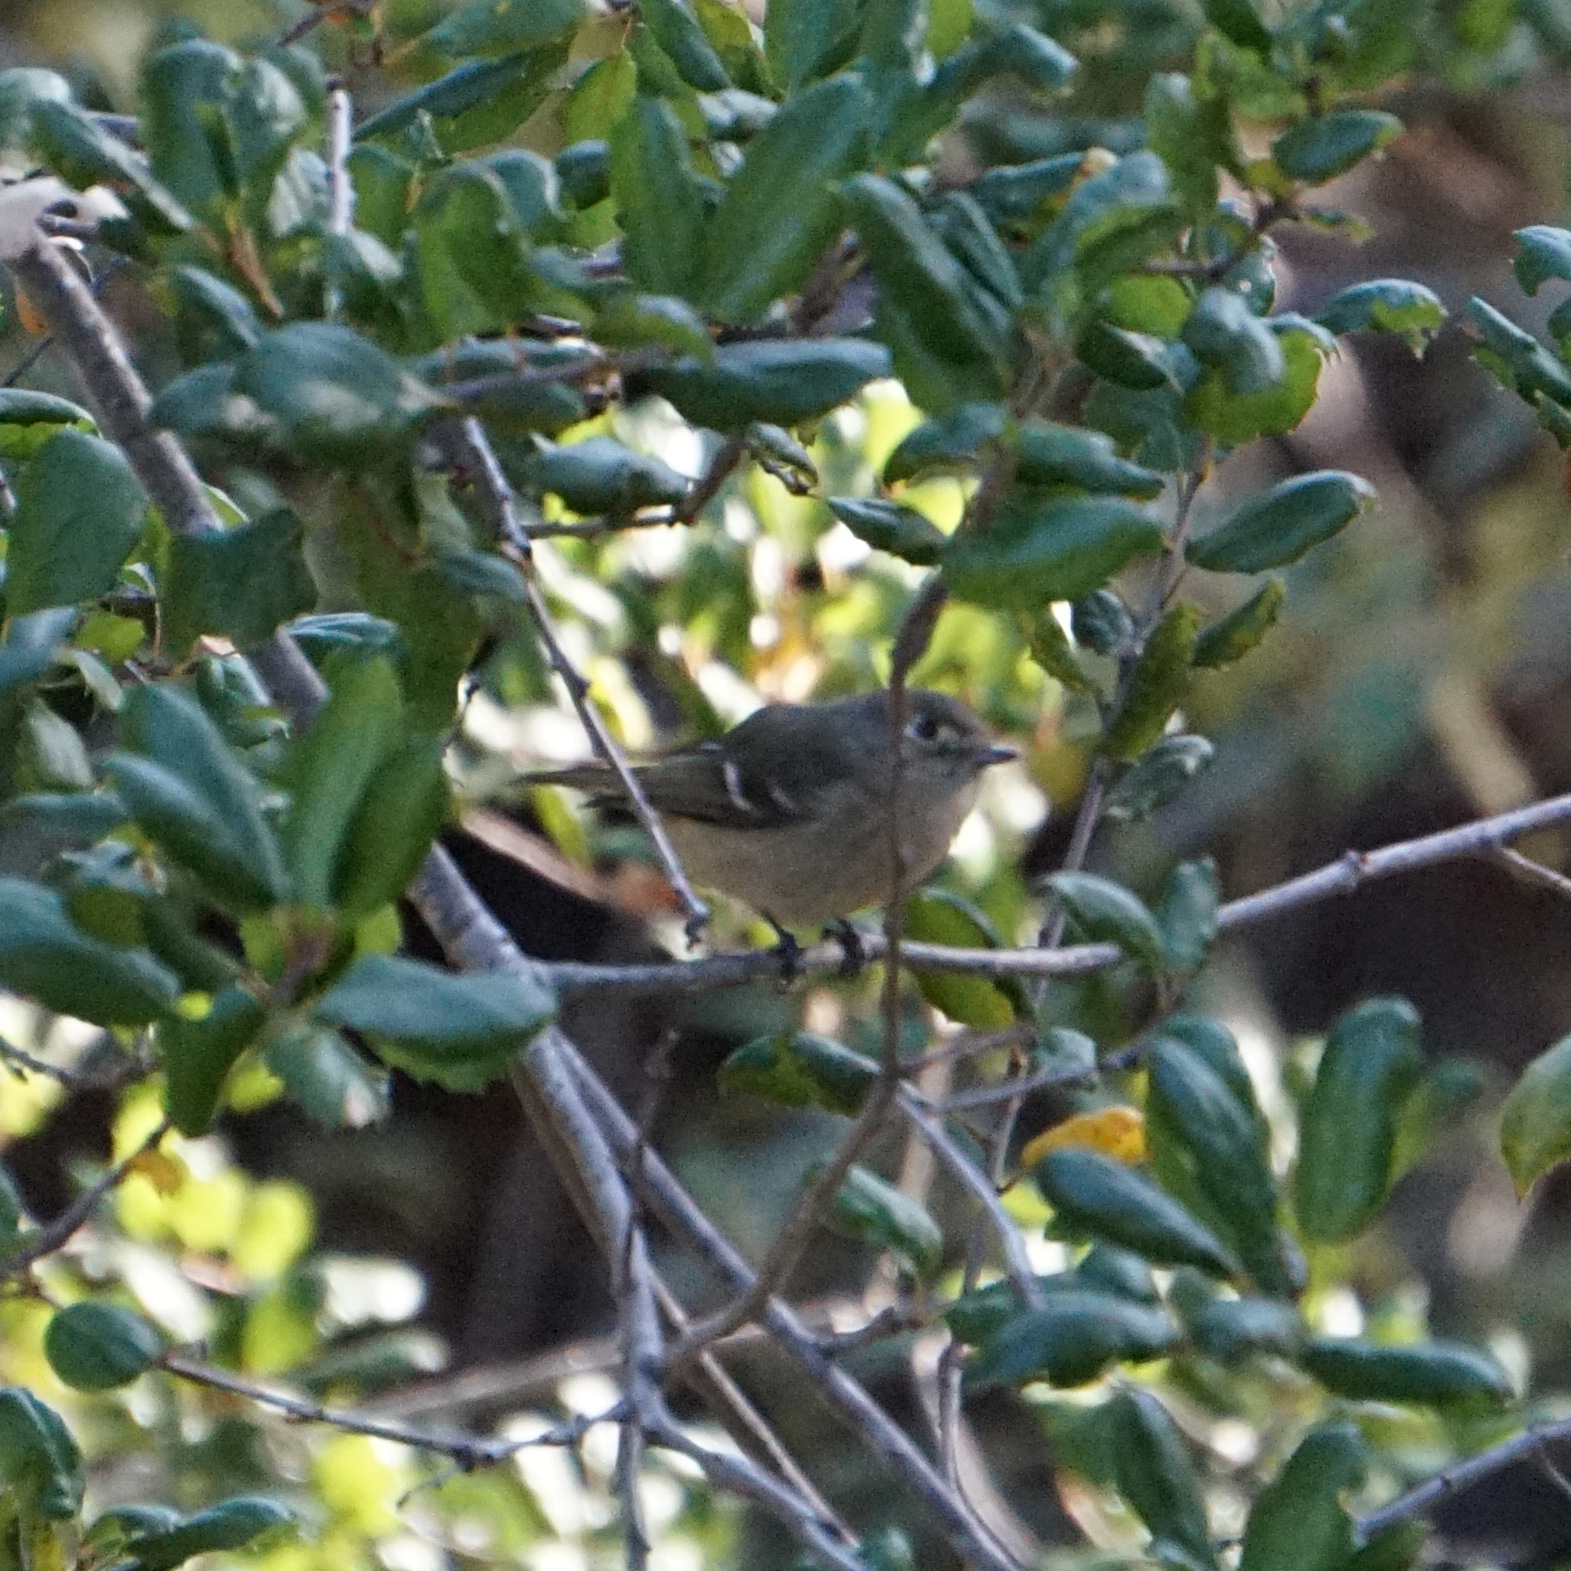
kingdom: Animalia
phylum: Chordata
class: Aves
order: Passeriformes
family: Regulidae
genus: Regulus
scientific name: Regulus calendula
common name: Ruby-crowned kinglet
